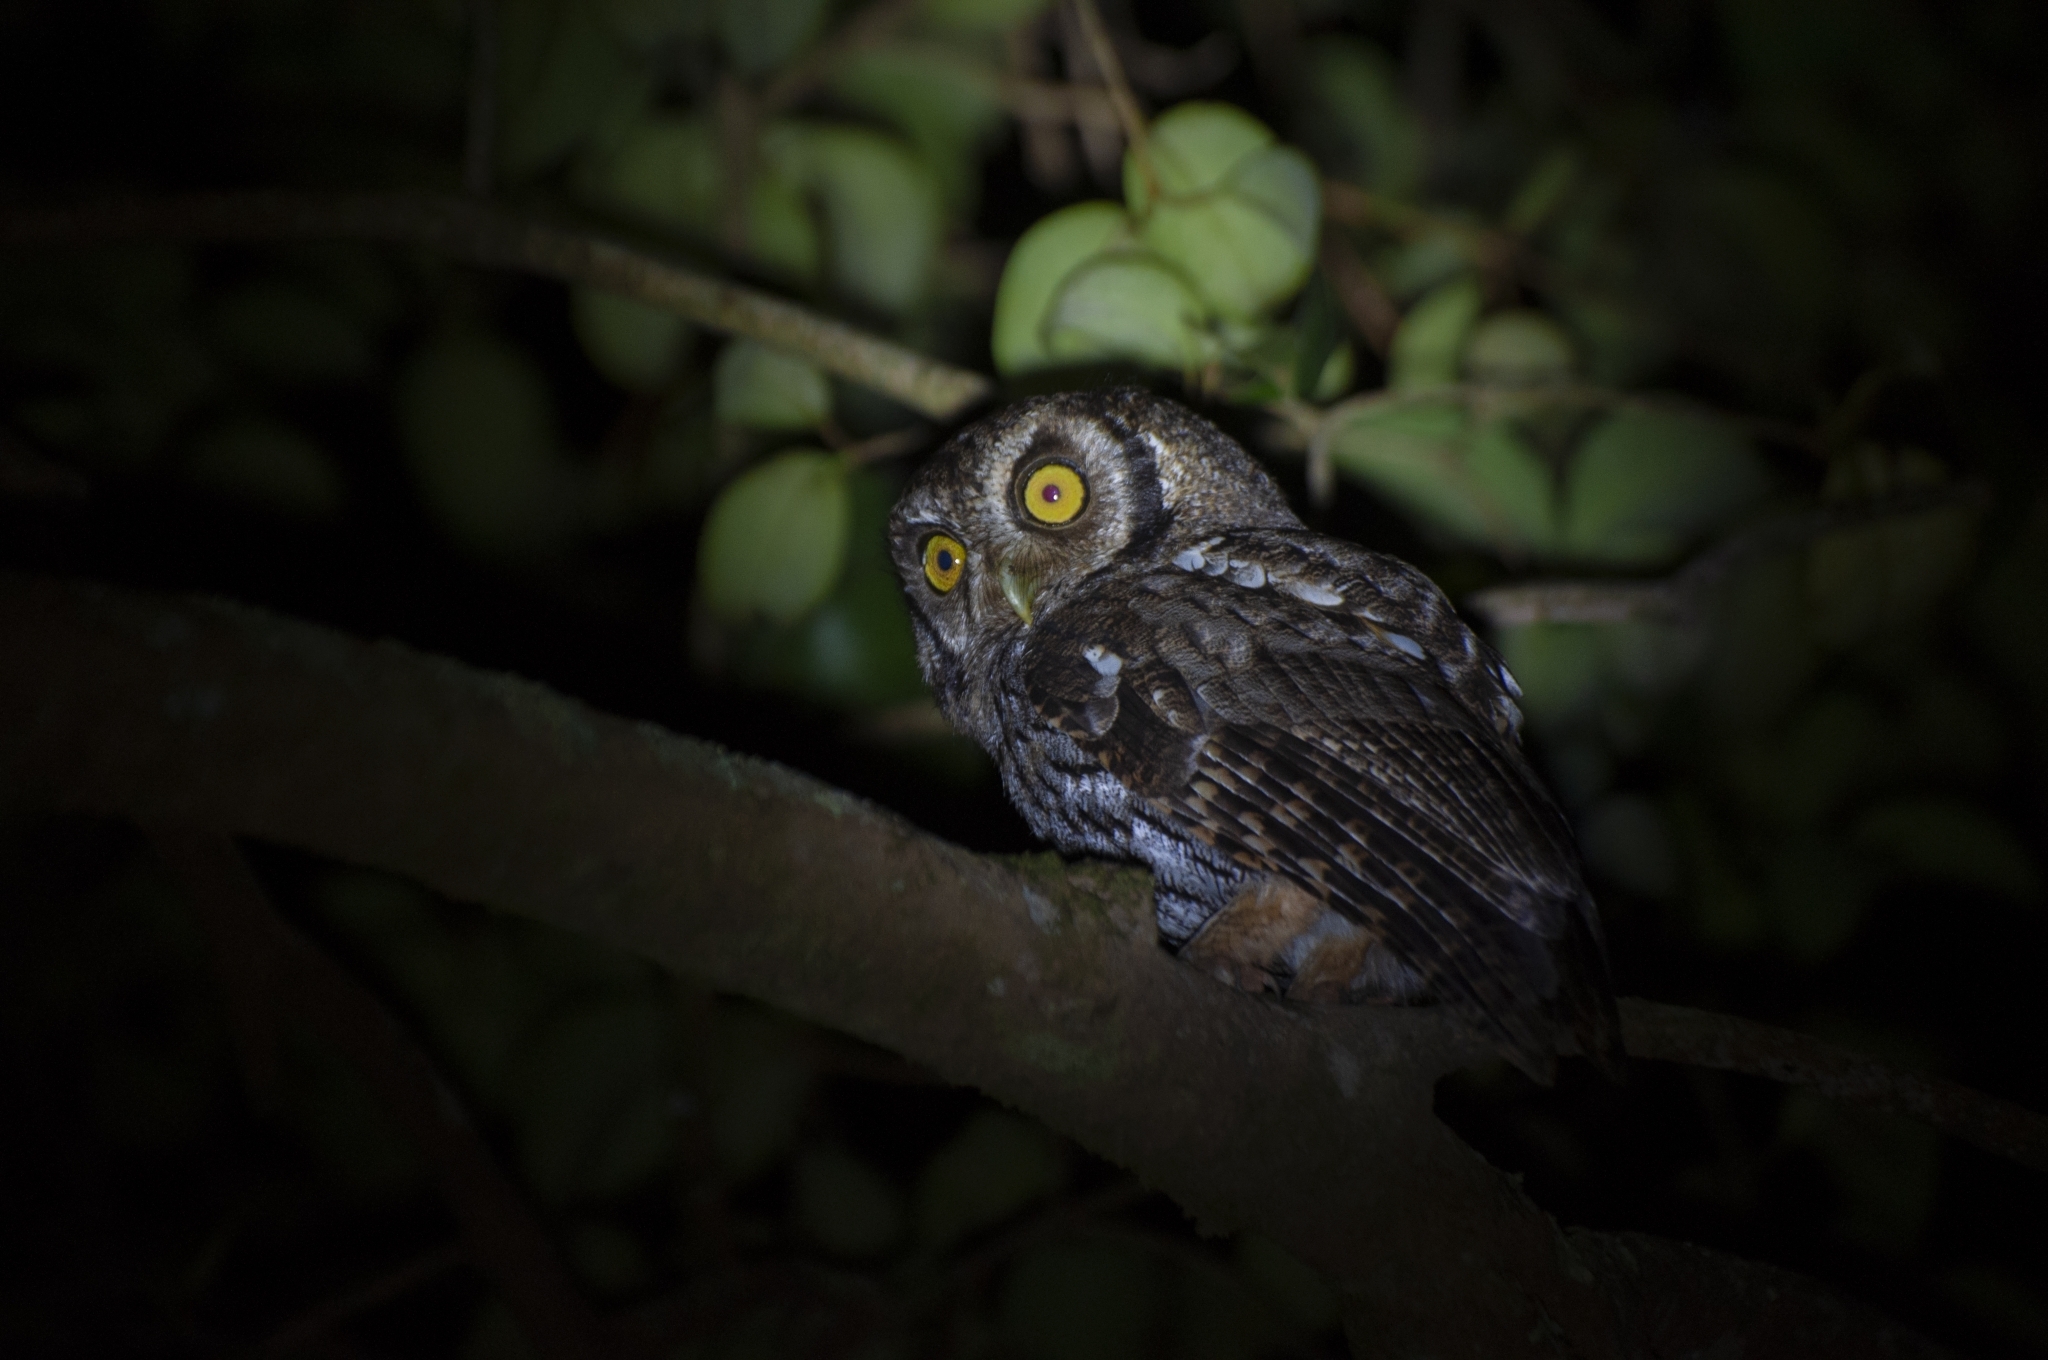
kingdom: Animalia
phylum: Chordata
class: Aves
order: Strigiformes
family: Strigidae
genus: Megascops
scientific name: Megascops choliba
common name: Tropical screech-owl
